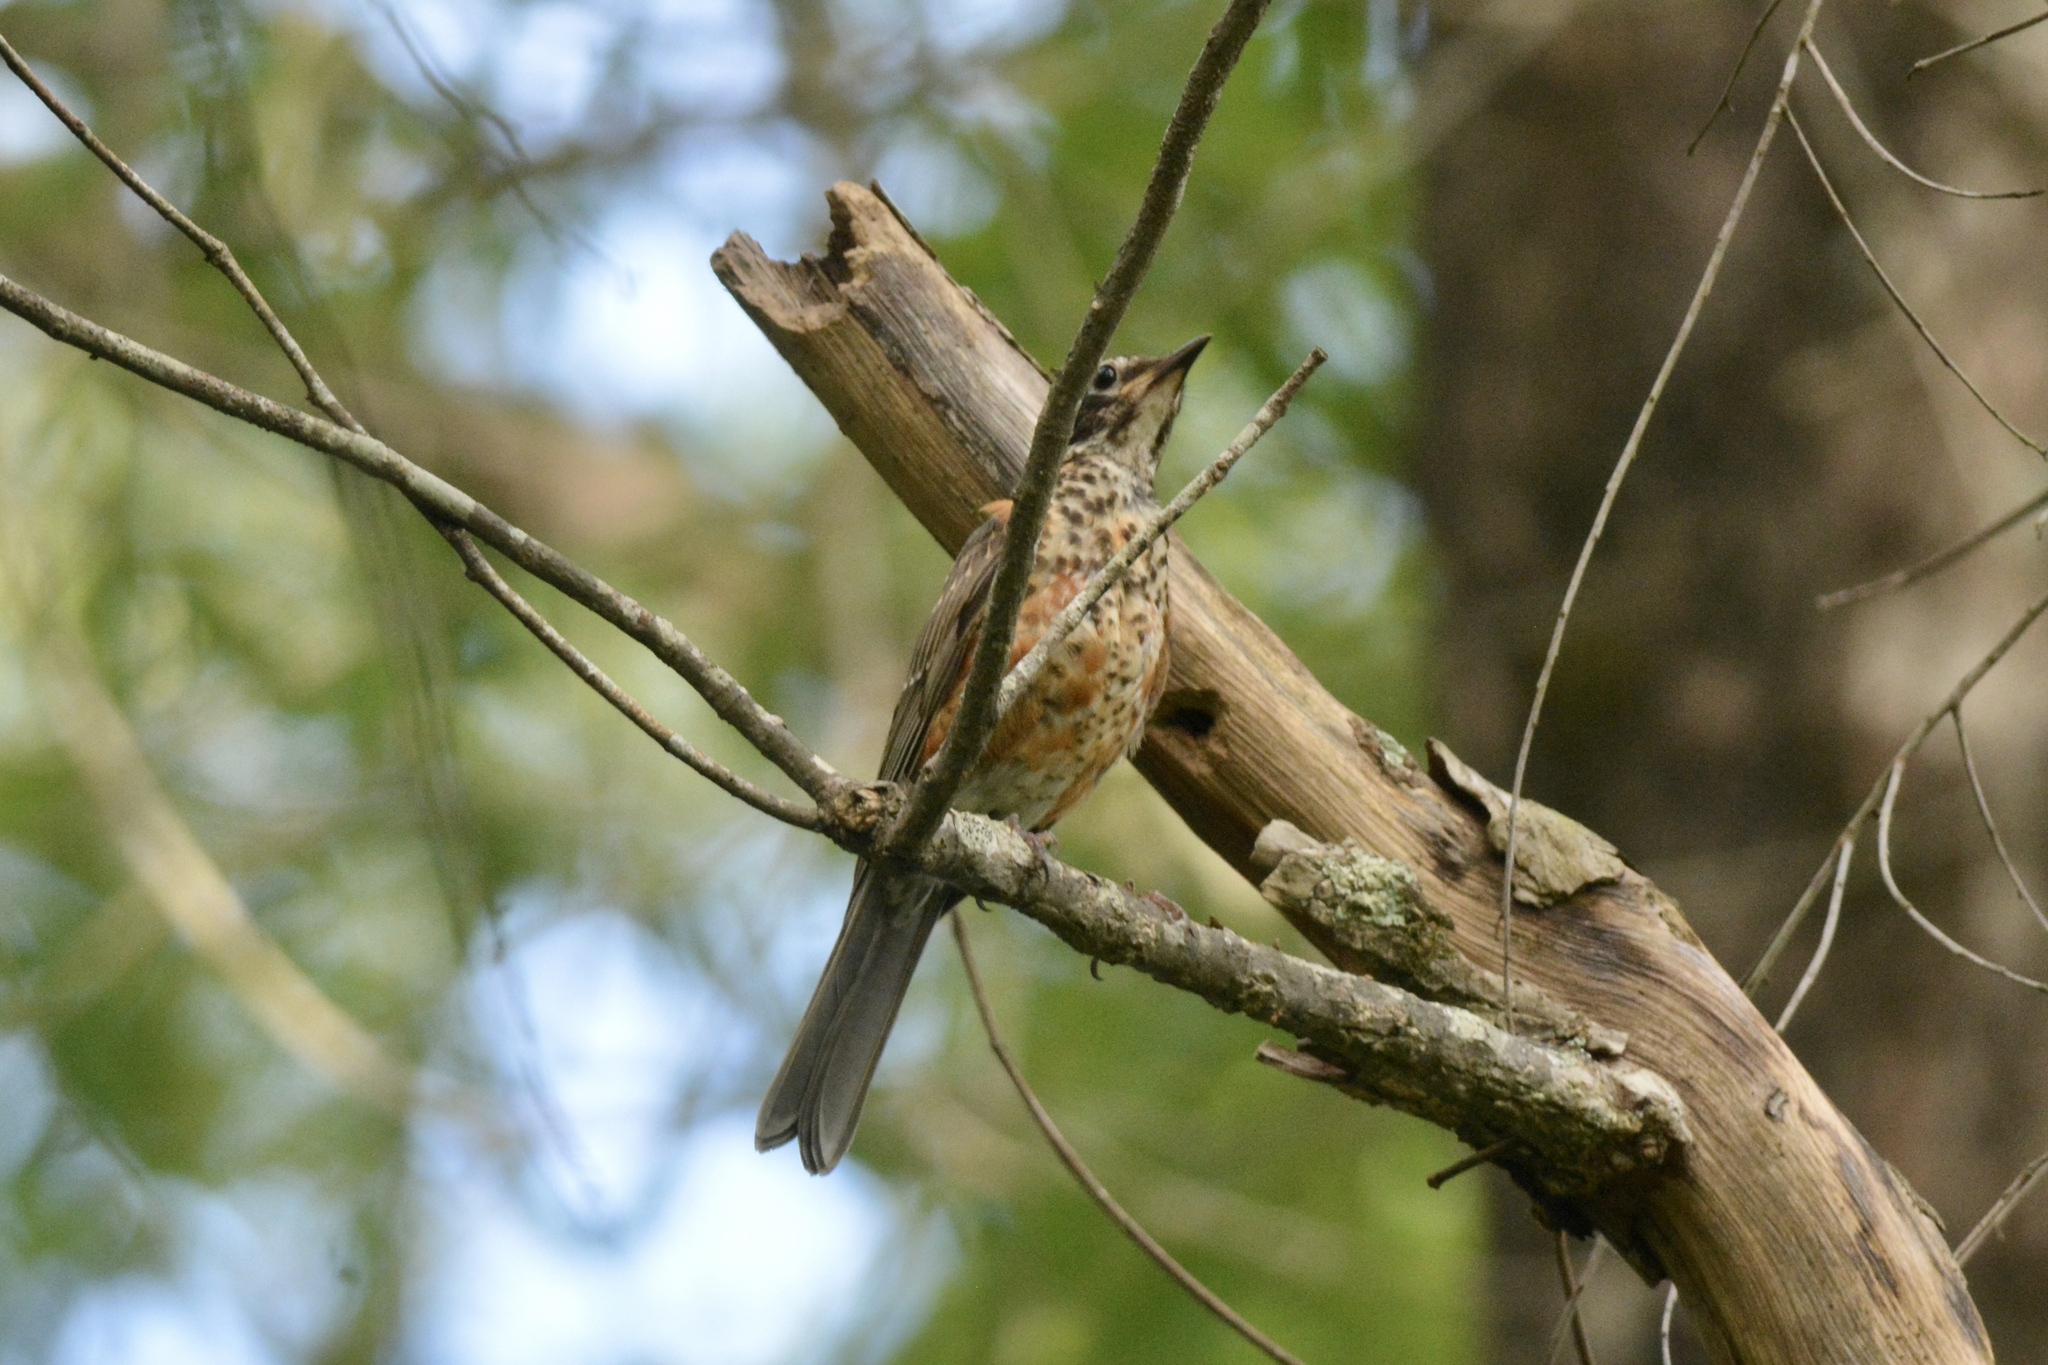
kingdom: Animalia
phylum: Chordata
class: Aves
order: Passeriformes
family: Turdidae
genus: Turdus
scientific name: Turdus migratorius
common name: American robin
